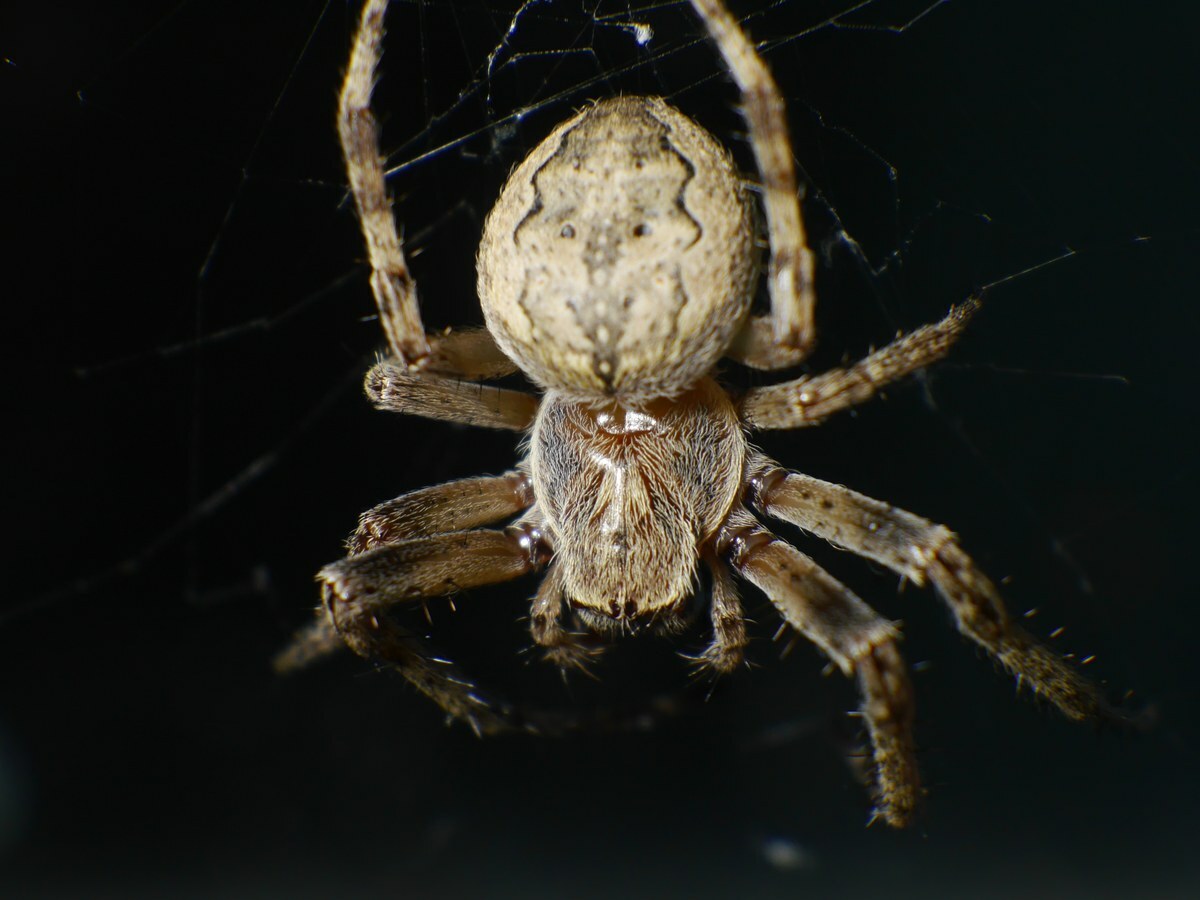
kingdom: Animalia
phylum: Arthropoda
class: Arachnida
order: Araneae
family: Araneidae
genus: Larinioides
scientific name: Larinioides ixobolus
